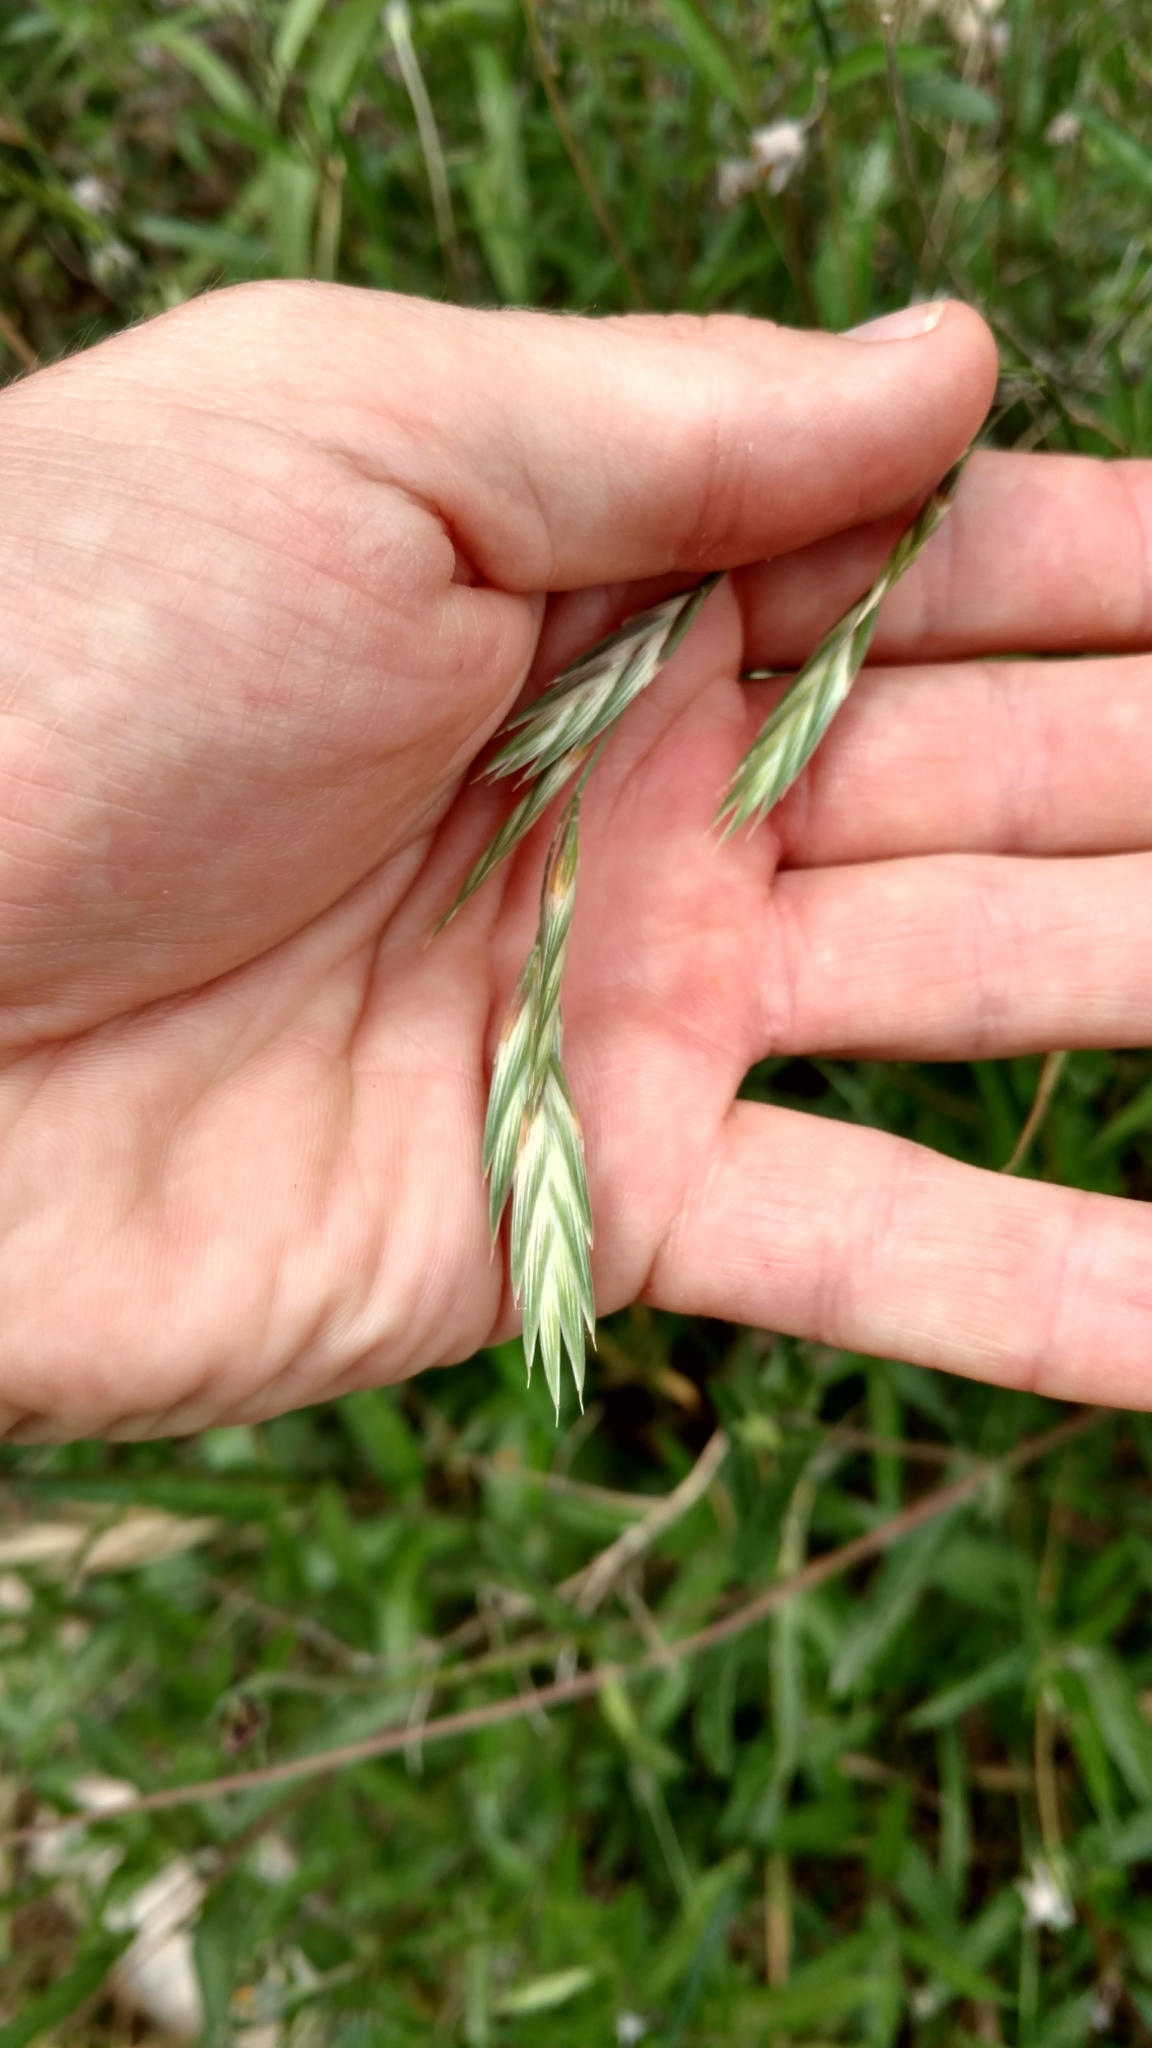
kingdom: Plantae
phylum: Tracheophyta
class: Liliopsida
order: Poales
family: Poaceae
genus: Bromus
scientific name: Bromus catharticus
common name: Rescuegrass
